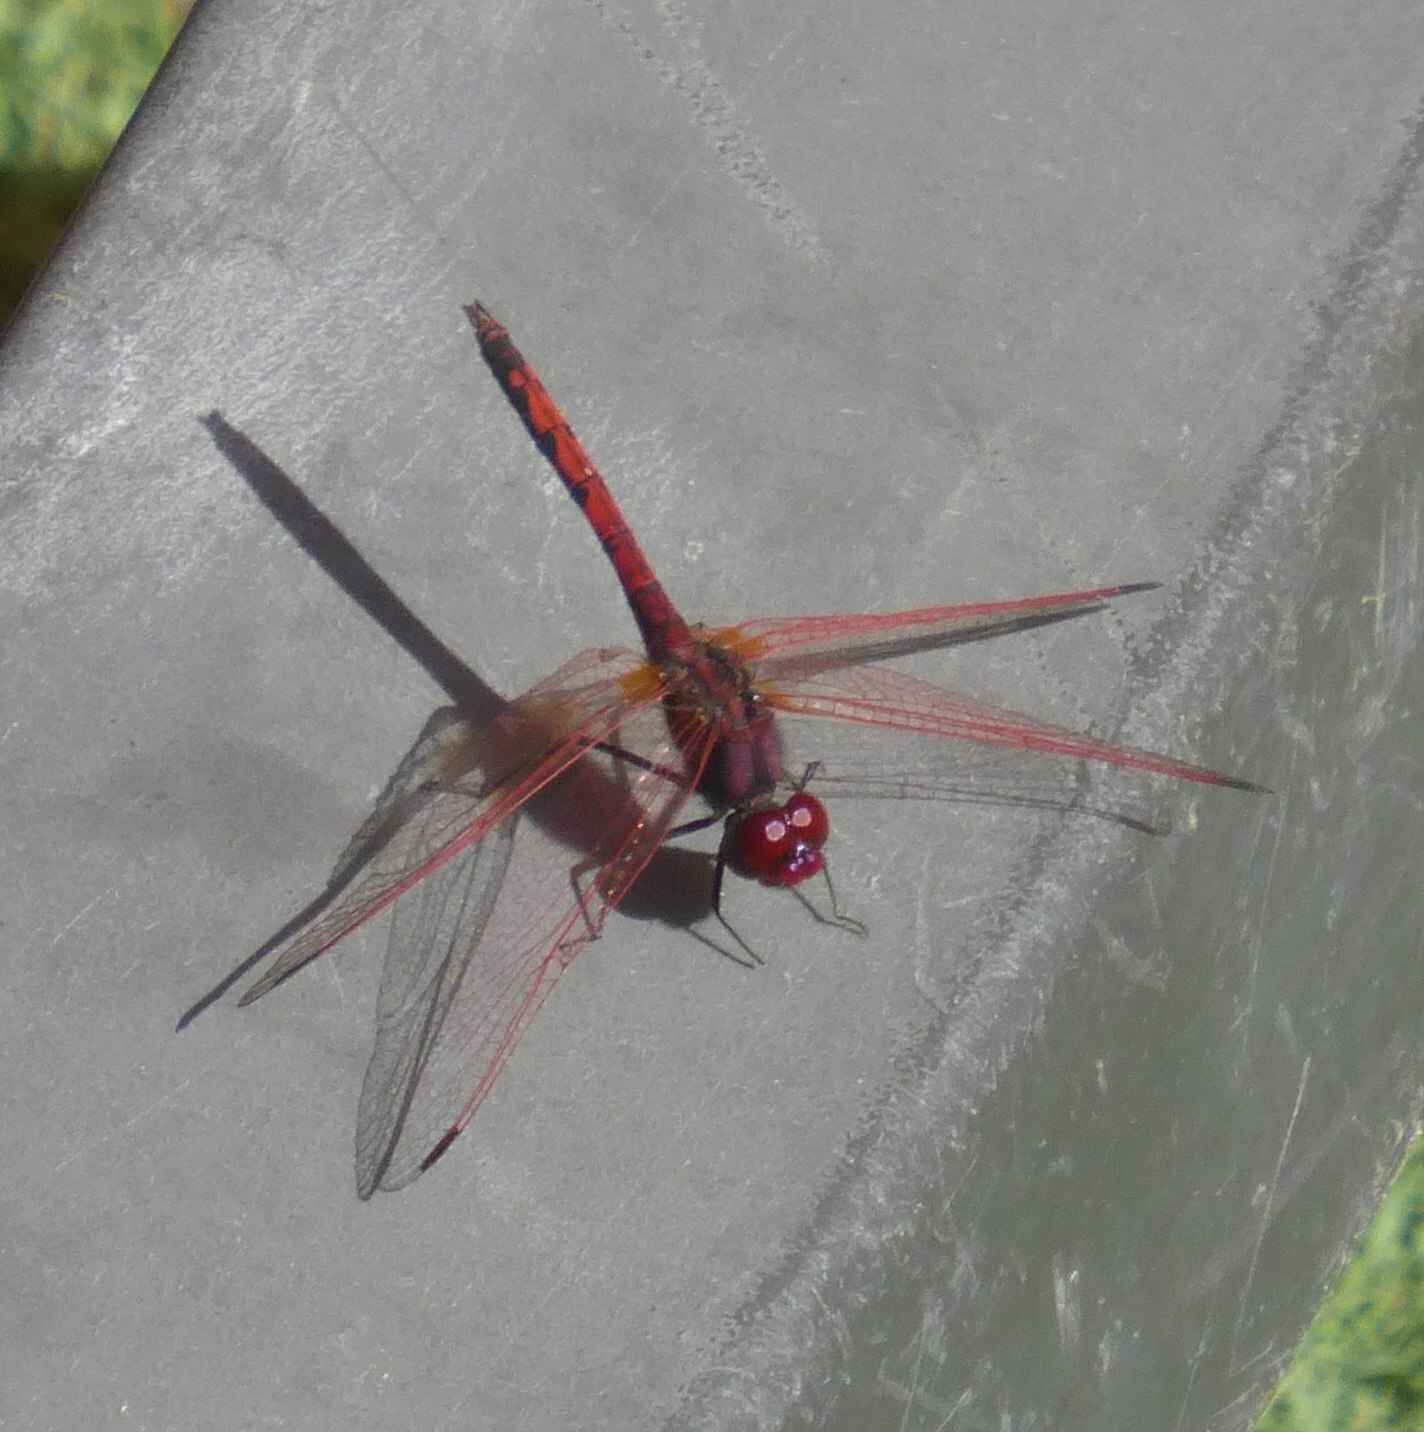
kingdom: Animalia
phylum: Arthropoda
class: Insecta
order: Odonata
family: Libellulidae
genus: Trithemis
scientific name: Trithemis arteriosa
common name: Red-veined dropwing
